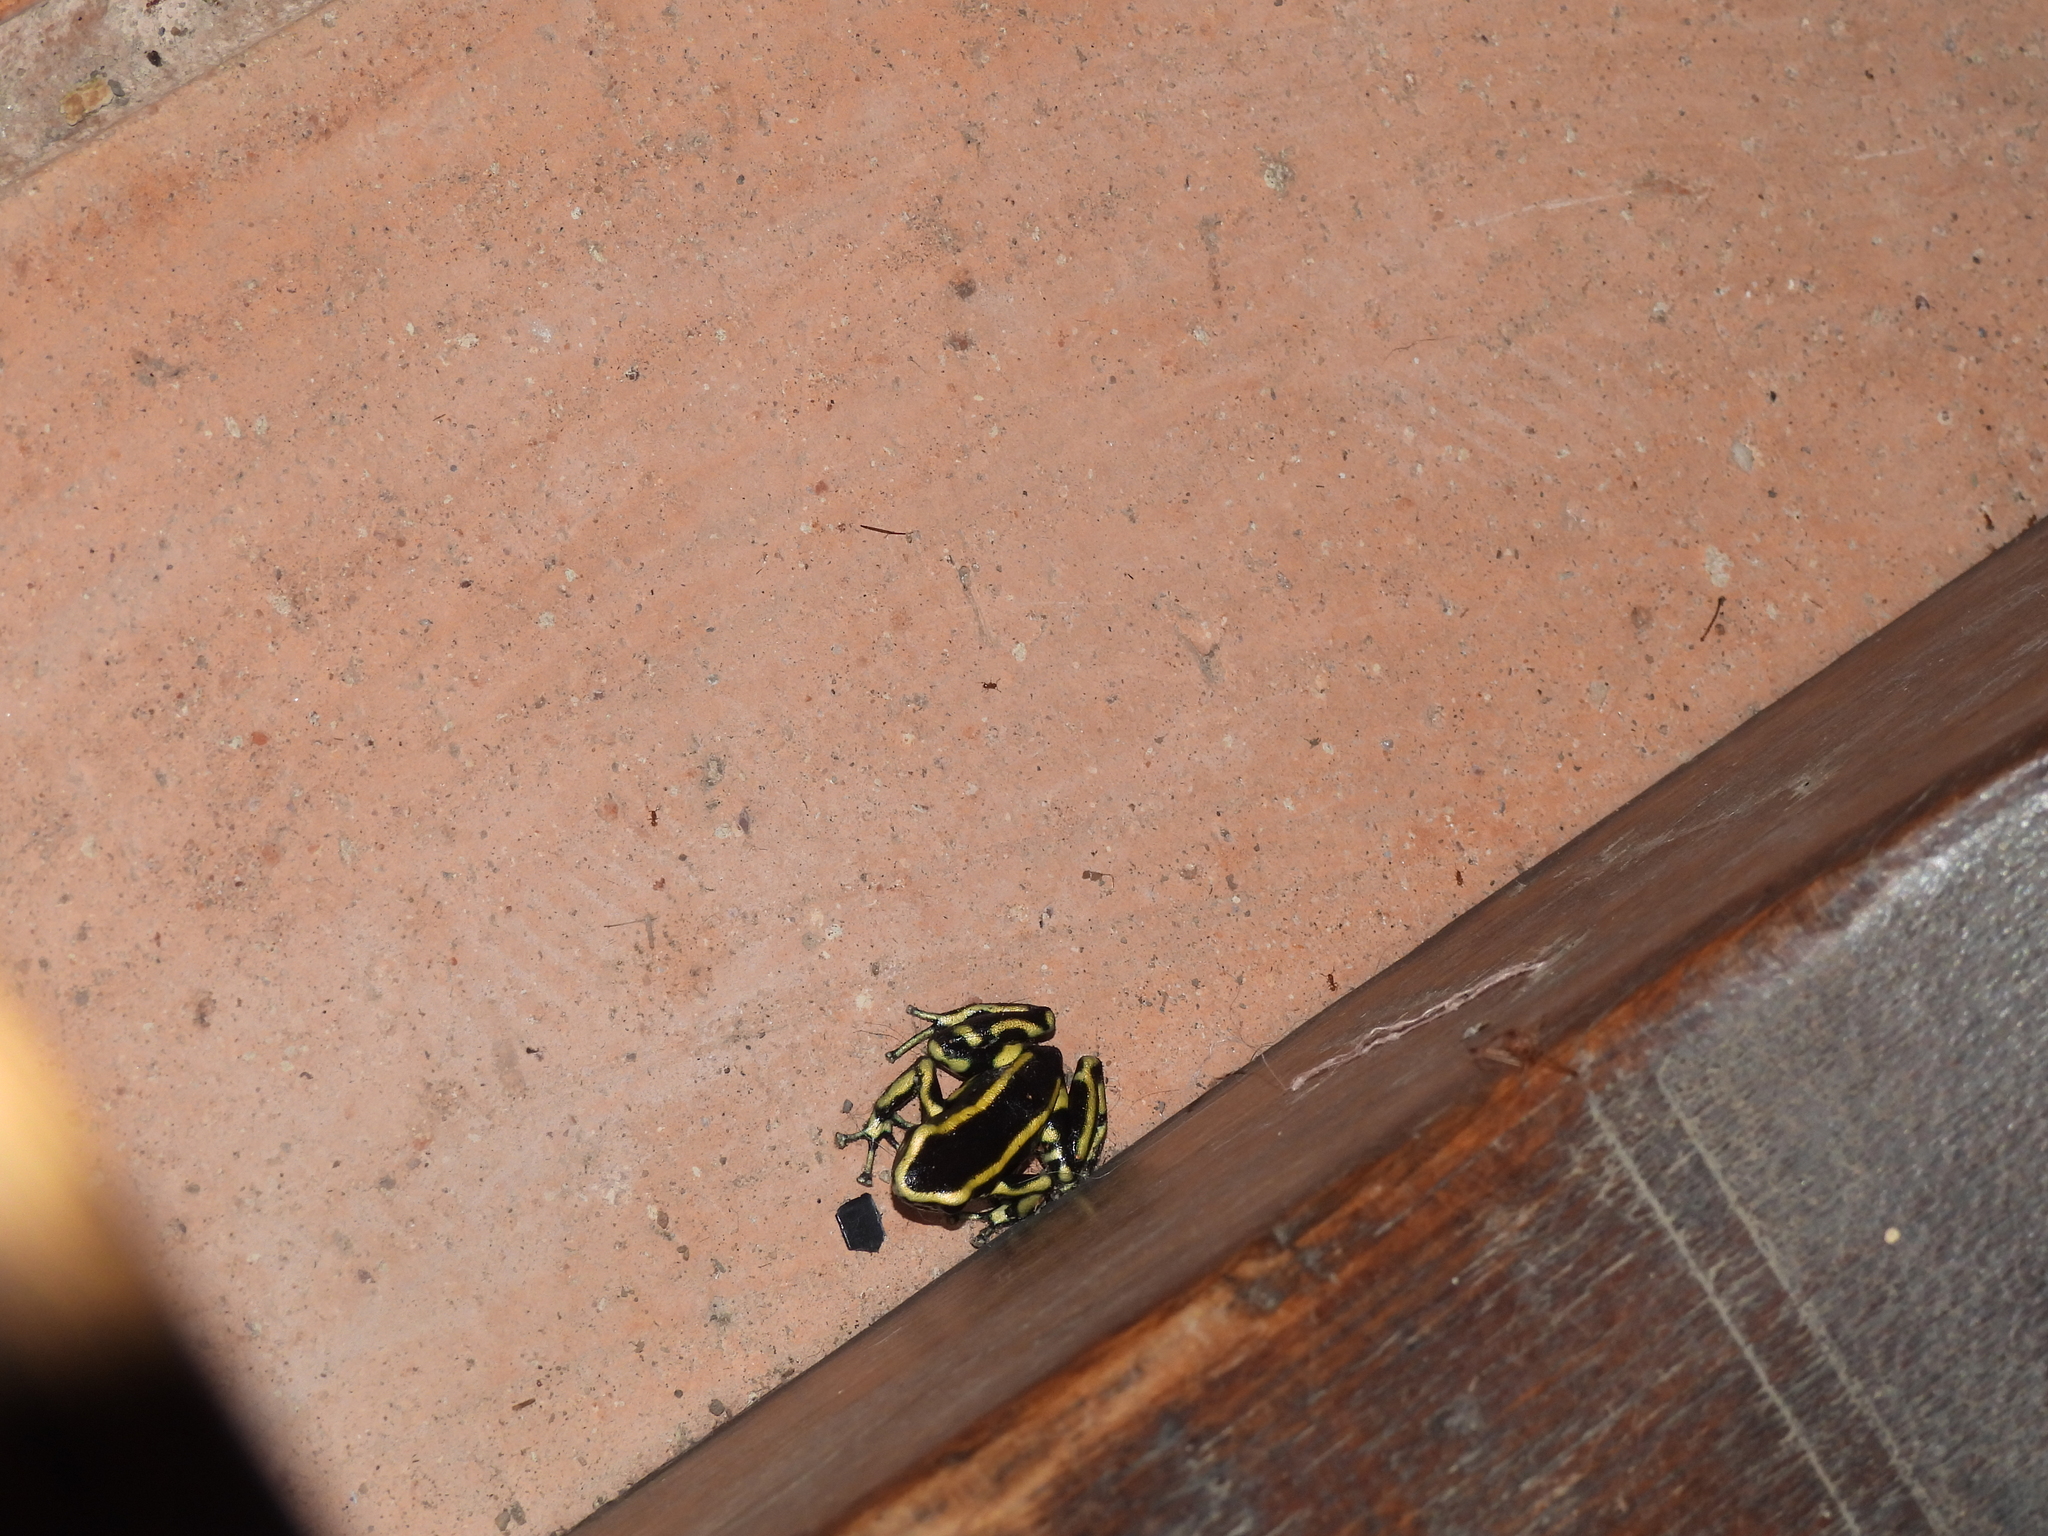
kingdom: Animalia
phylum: Chordata
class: Amphibia
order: Anura
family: Dendrobatidae
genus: Dendrobates
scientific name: Dendrobates truncatus
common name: Yellow-striped poison frog
